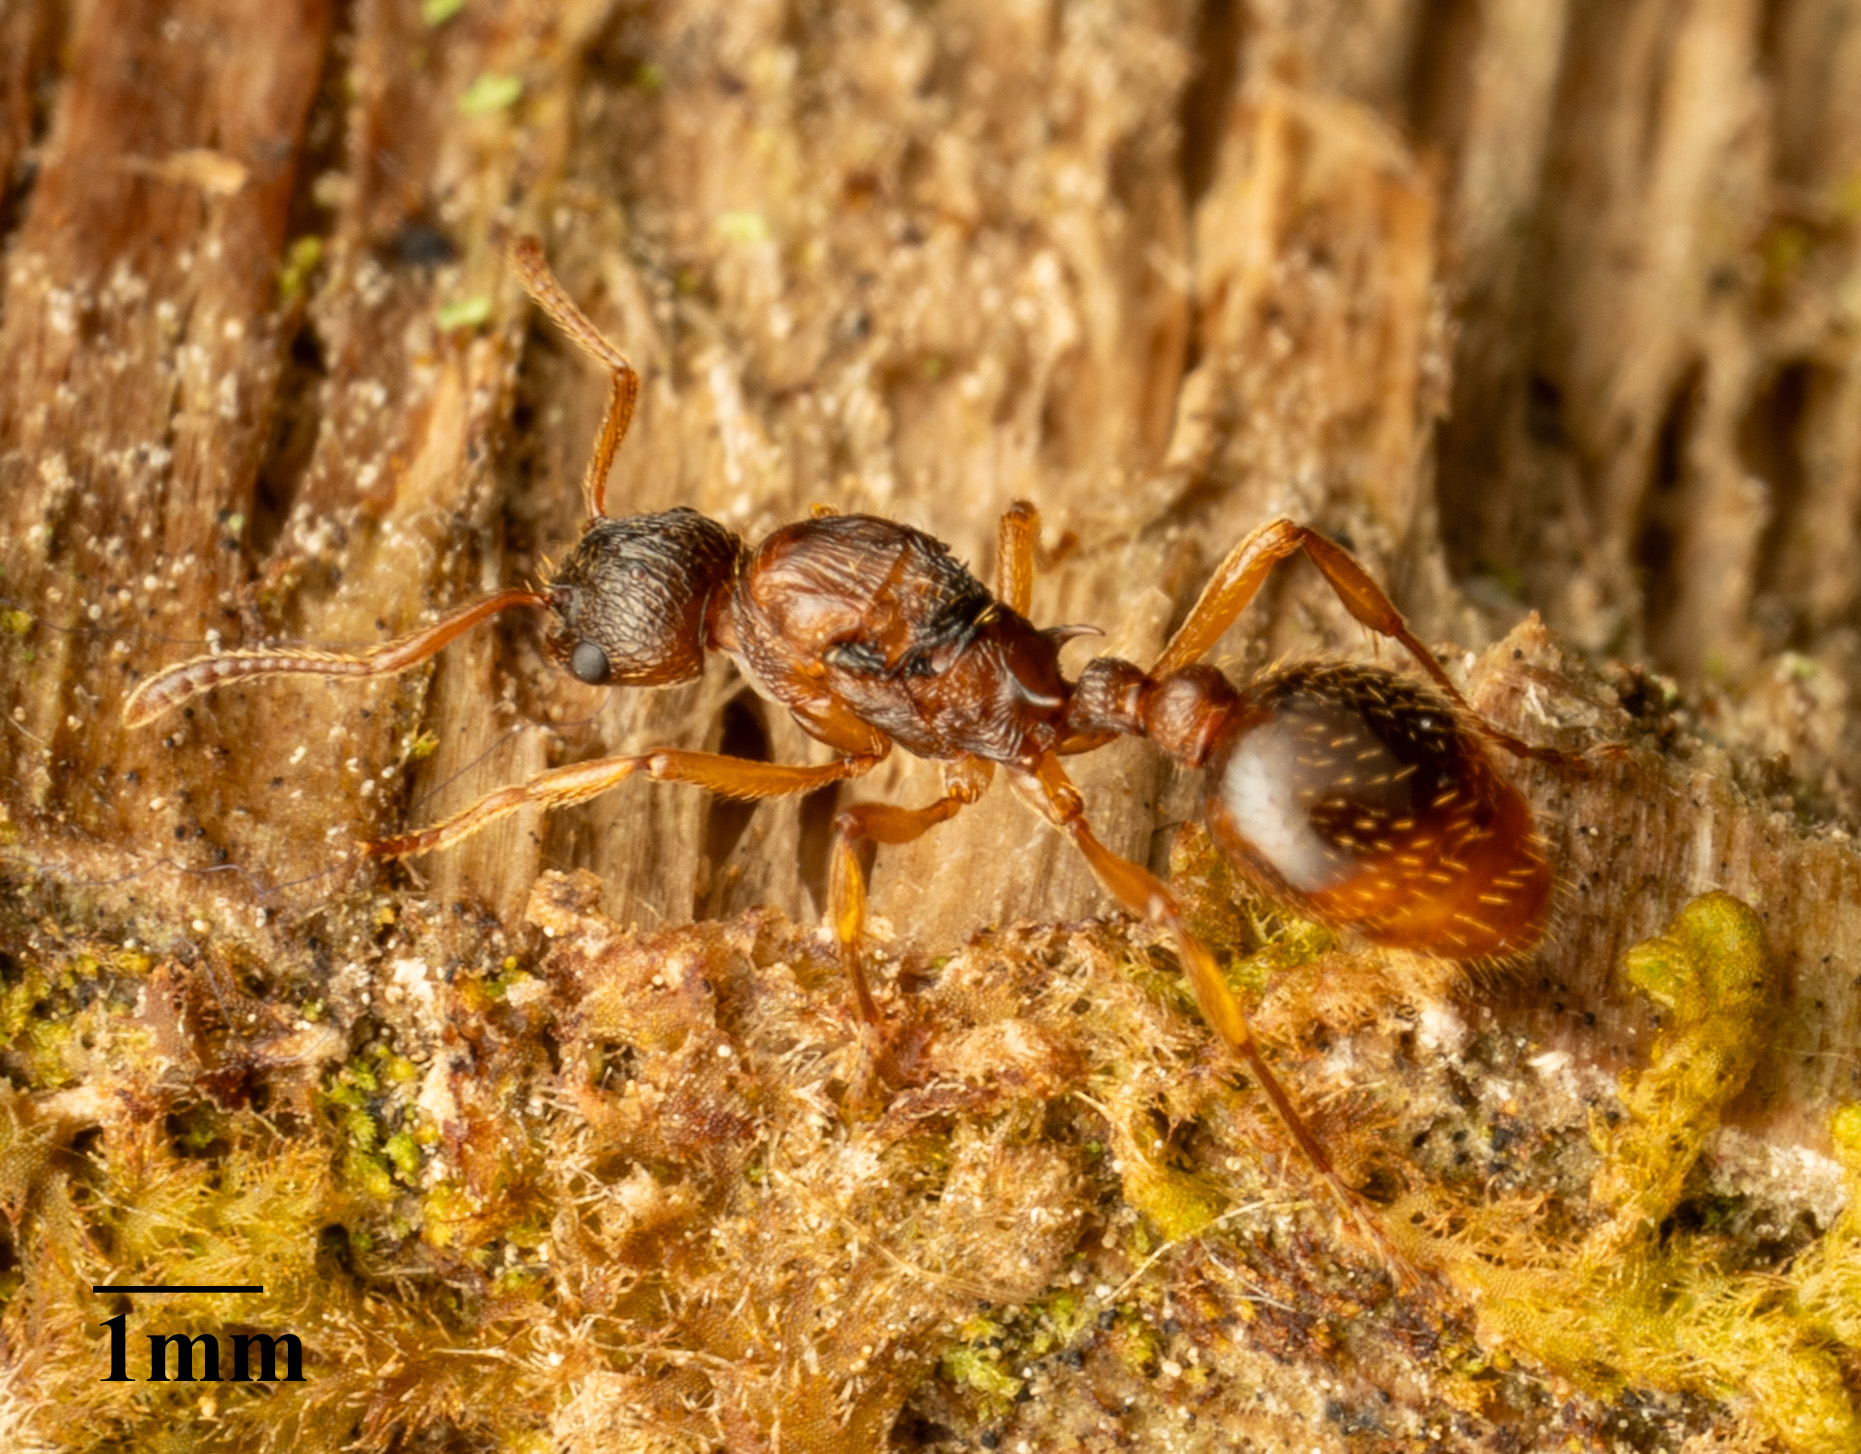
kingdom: Animalia
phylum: Arthropoda
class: Insecta
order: Hymenoptera
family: Formicidae
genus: Myrmica
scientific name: Myrmica ruginodis
